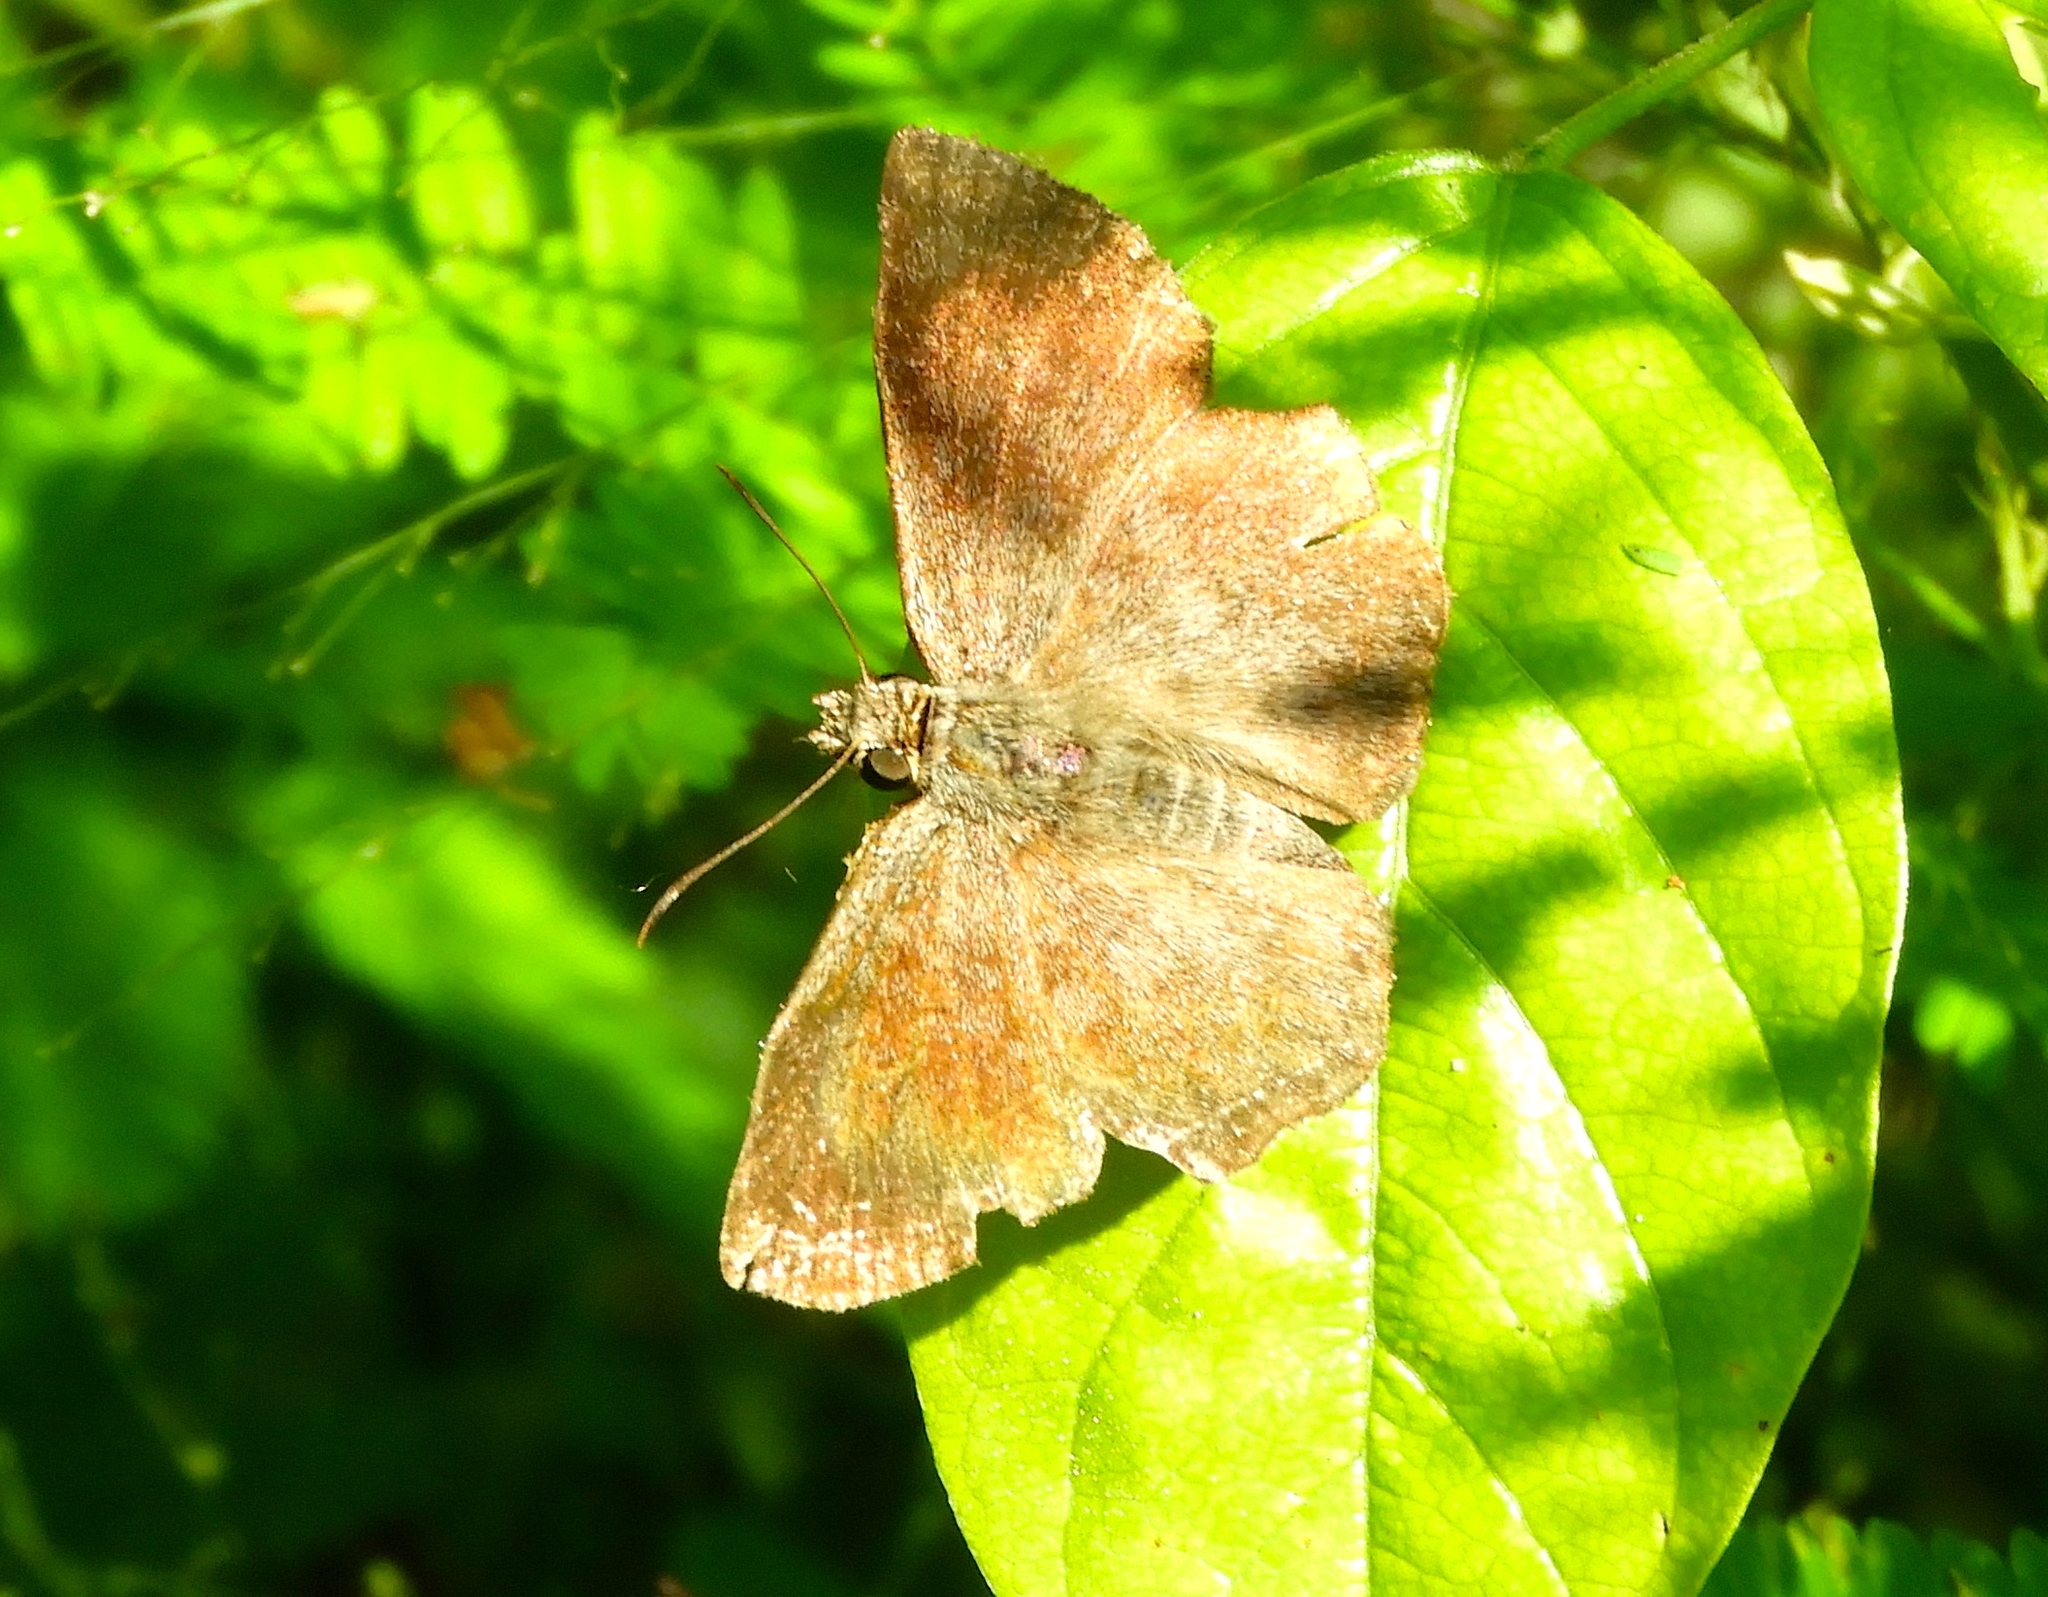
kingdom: Animalia
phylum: Arthropoda
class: Insecta
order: Lepidoptera
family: Hesperiidae
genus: Antigonus
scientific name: Antigonus erosus
